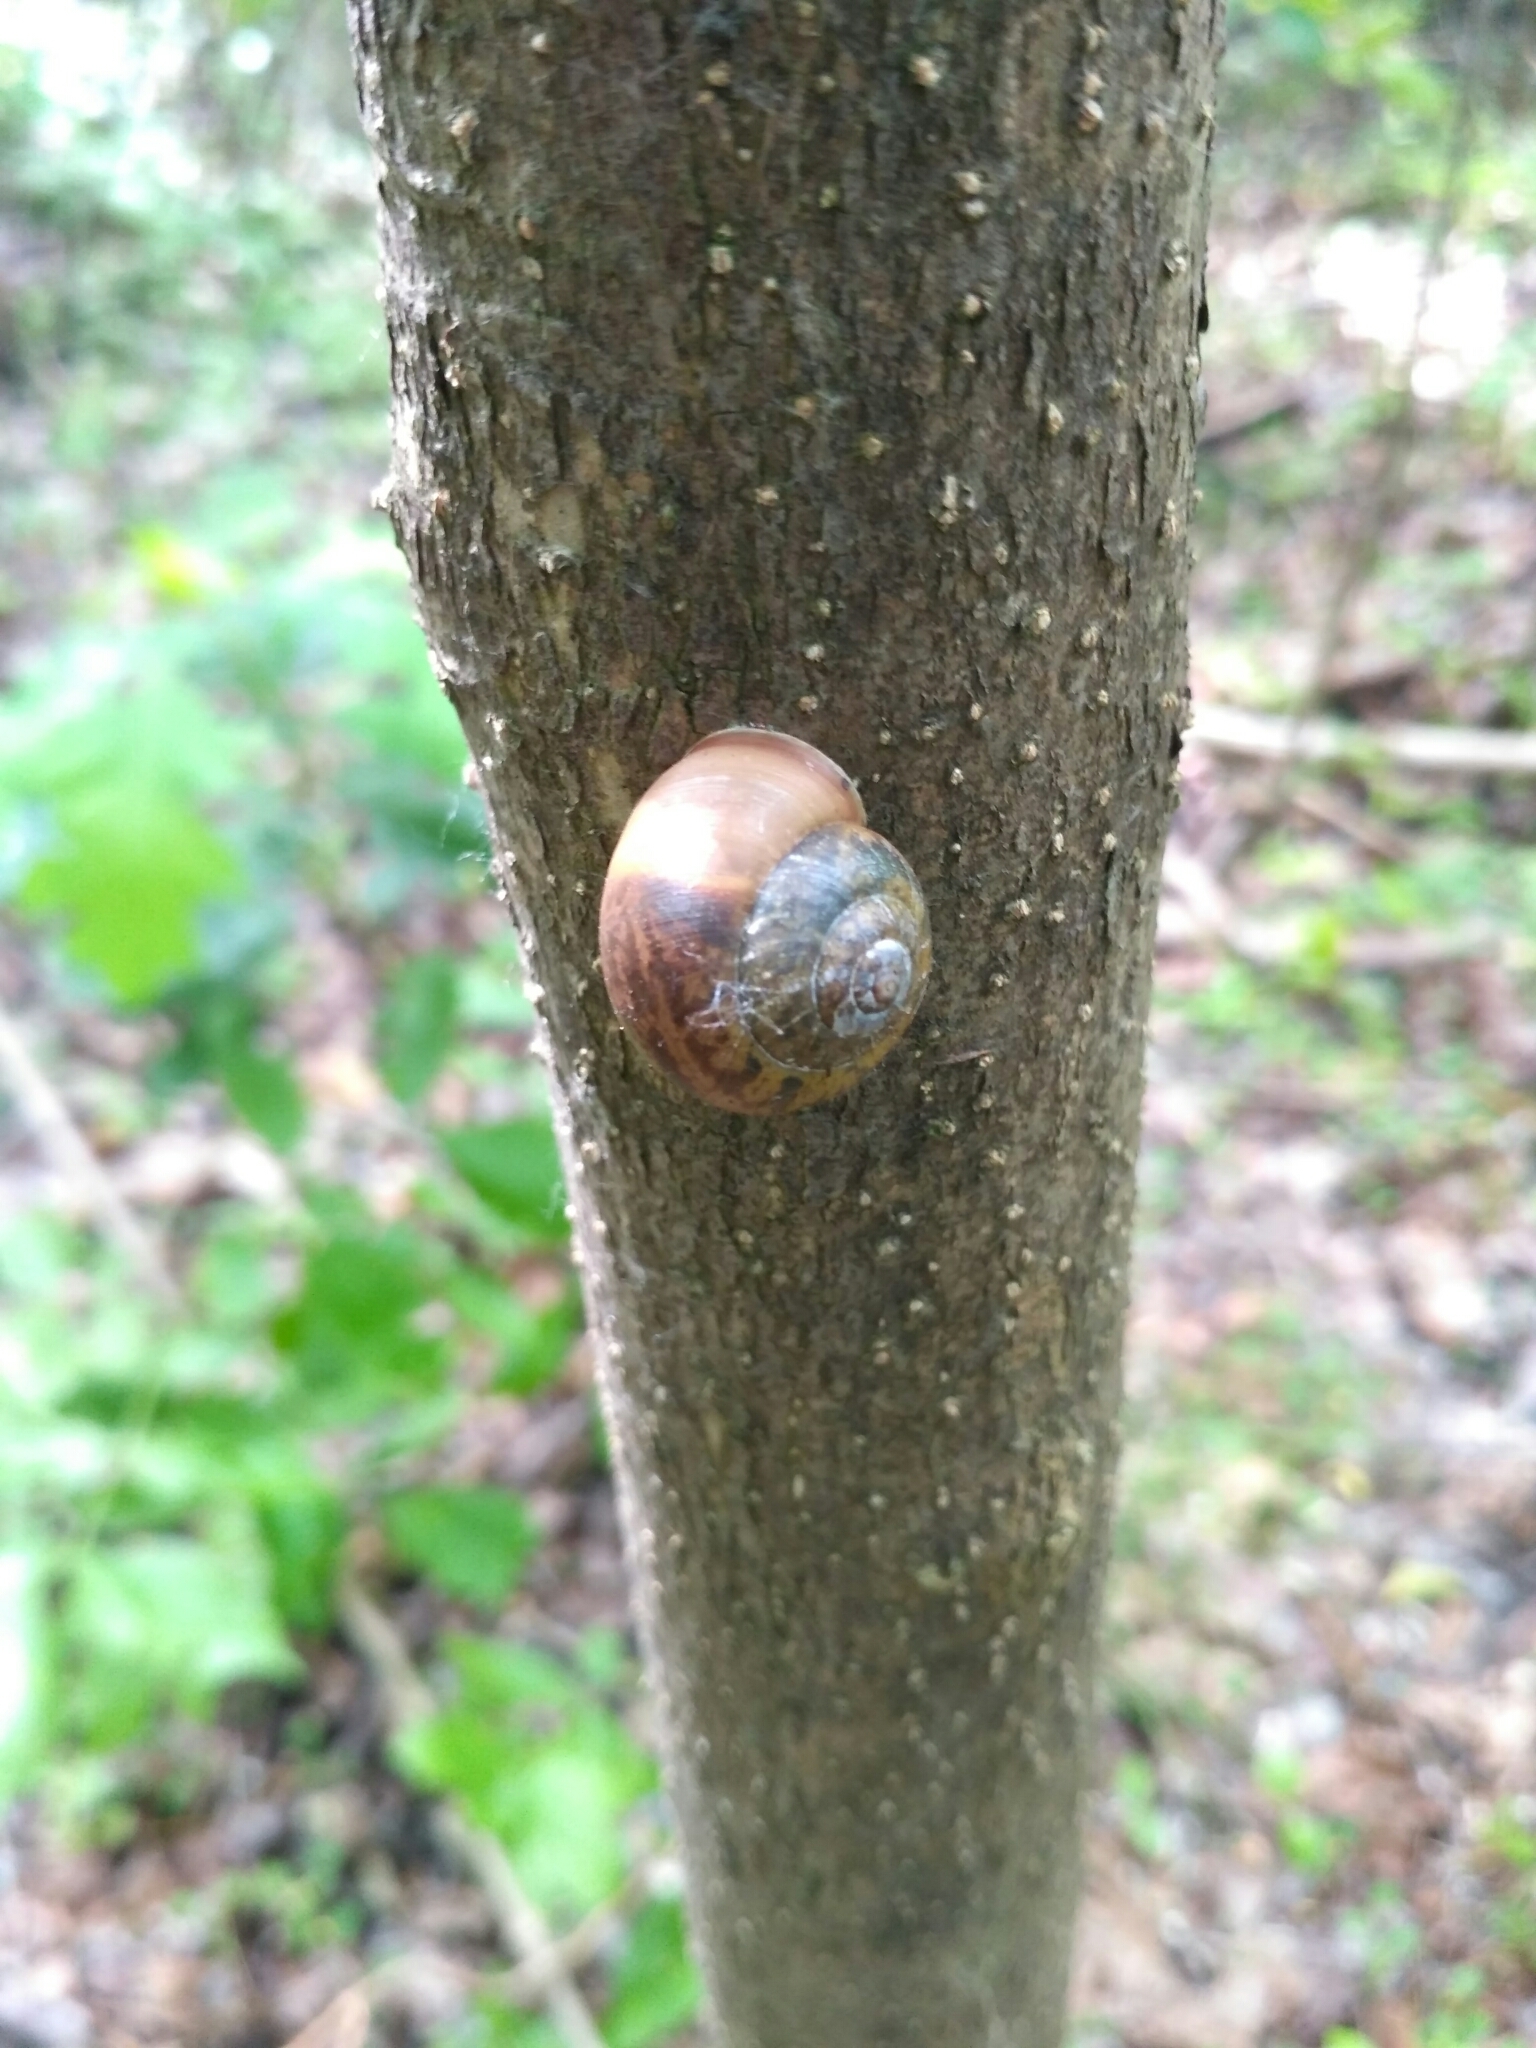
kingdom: Animalia
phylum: Mollusca
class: Gastropoda
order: Stylommatophora
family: Camaenidae
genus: Fruticicola
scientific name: Fruticicola fruticum
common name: Bush snail
